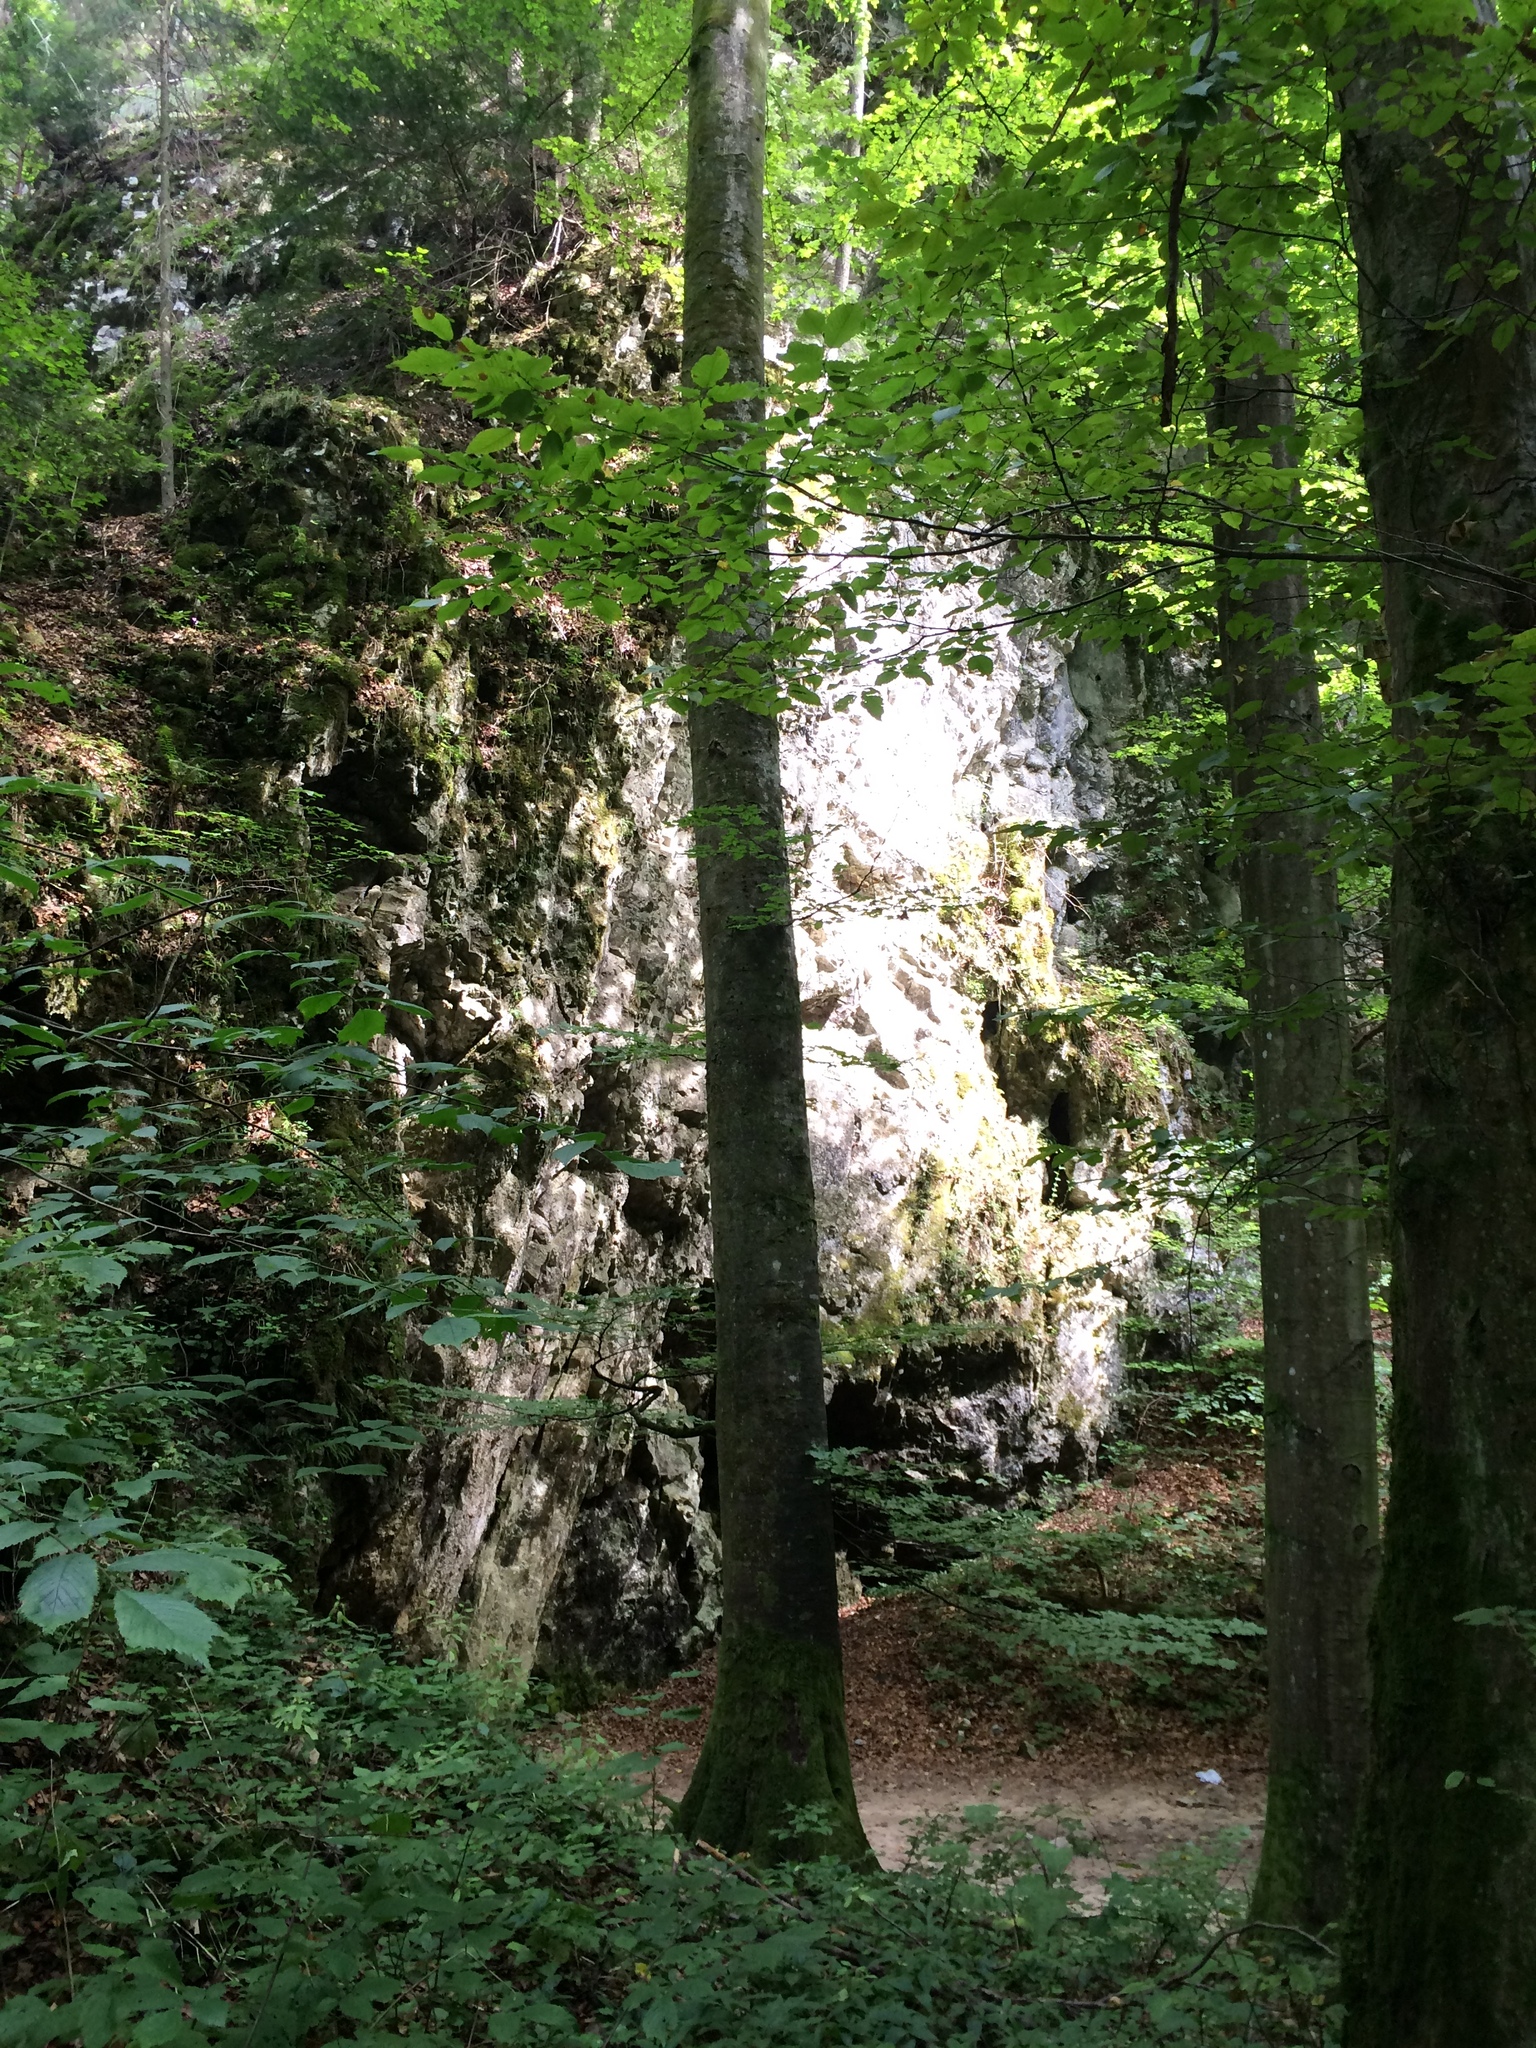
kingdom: Plantae
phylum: Tracheophyta
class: Magnoliopsida
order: Fagales
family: Fagaceae
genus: Fagus
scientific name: Fagus sylvatica
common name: Beech
